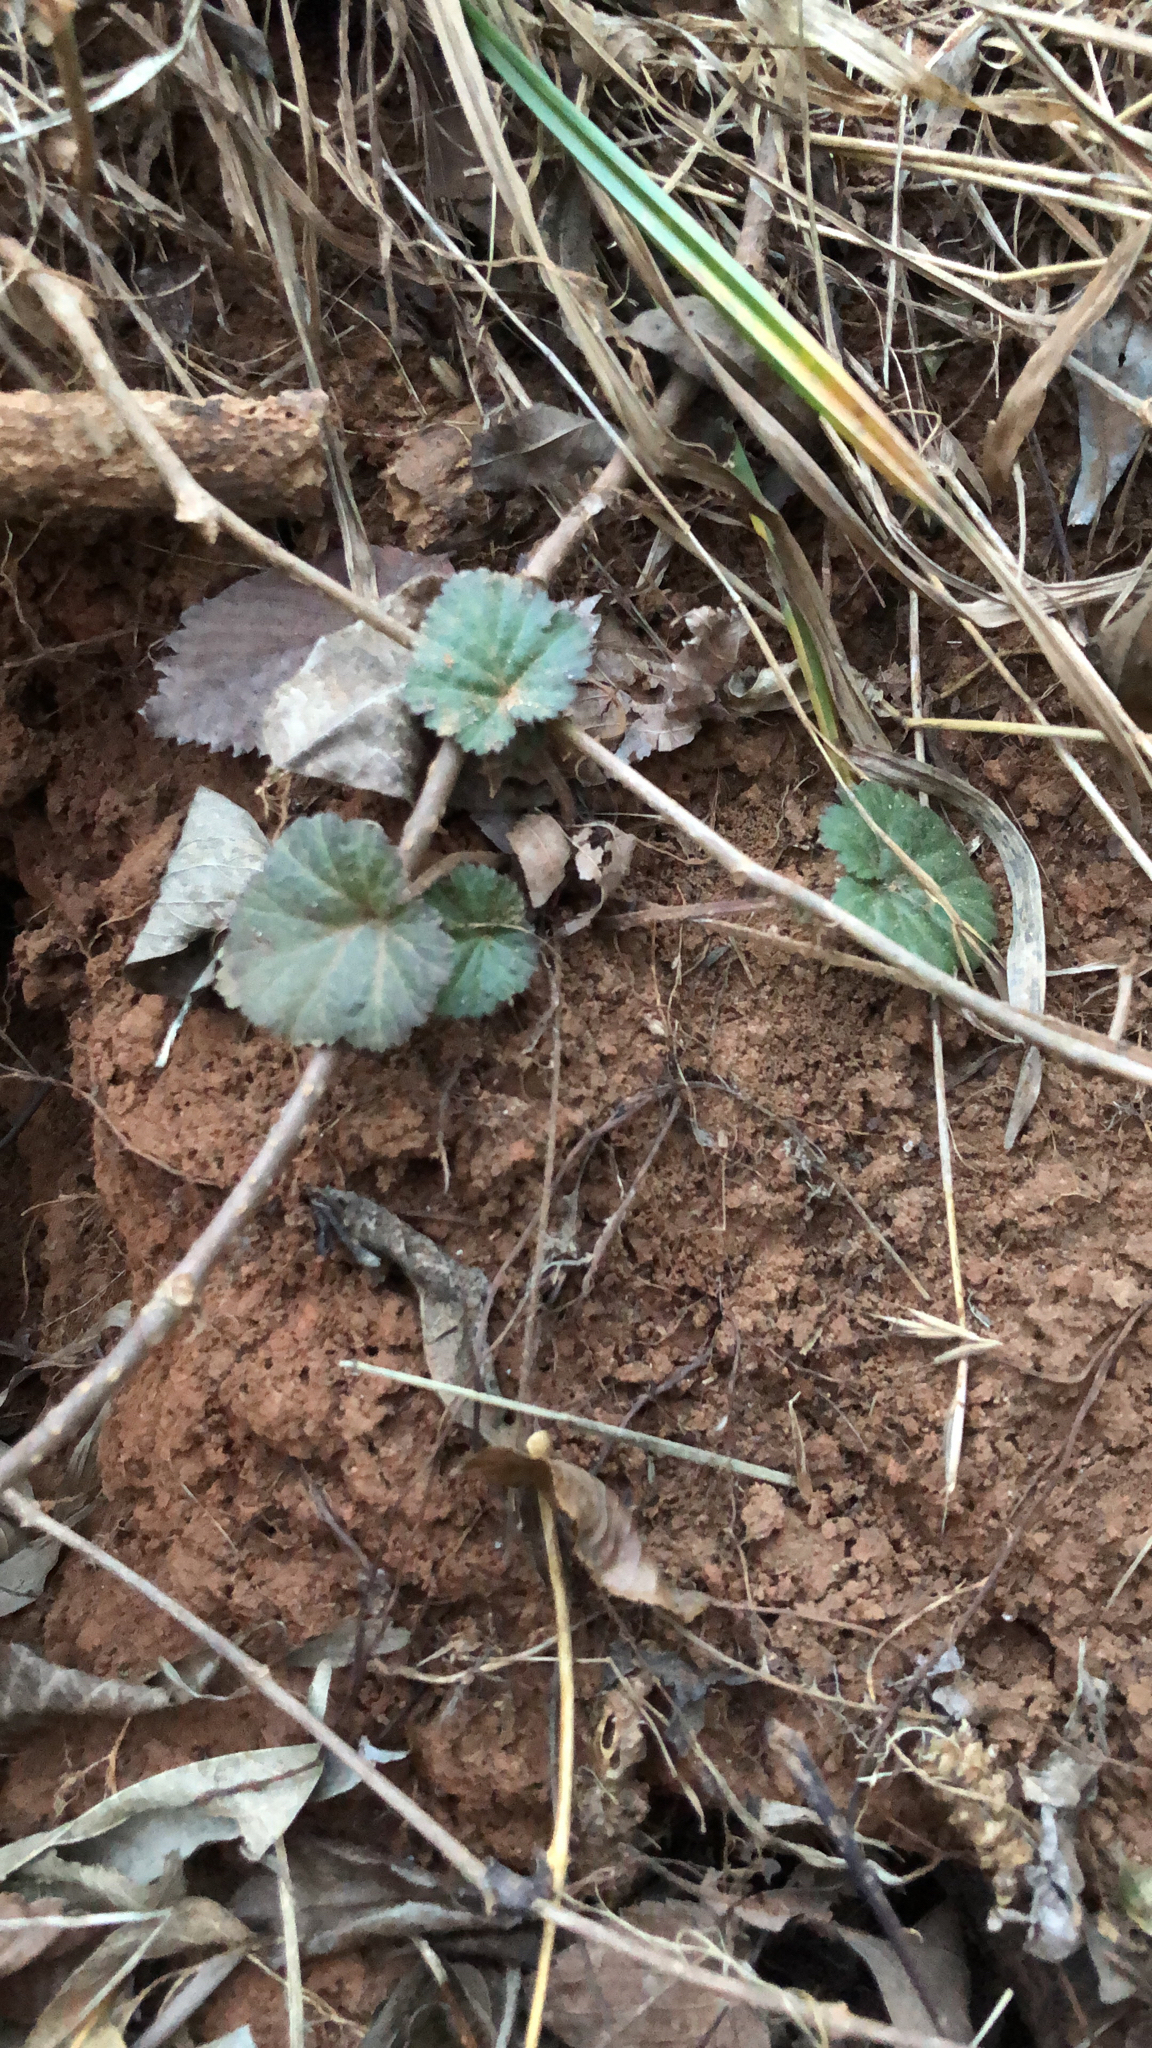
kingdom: Plantae
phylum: Tracheophyta
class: Magnoliopsida
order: Rosales
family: Rosaceae
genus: Geum
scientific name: Geum canadense
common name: White avens
